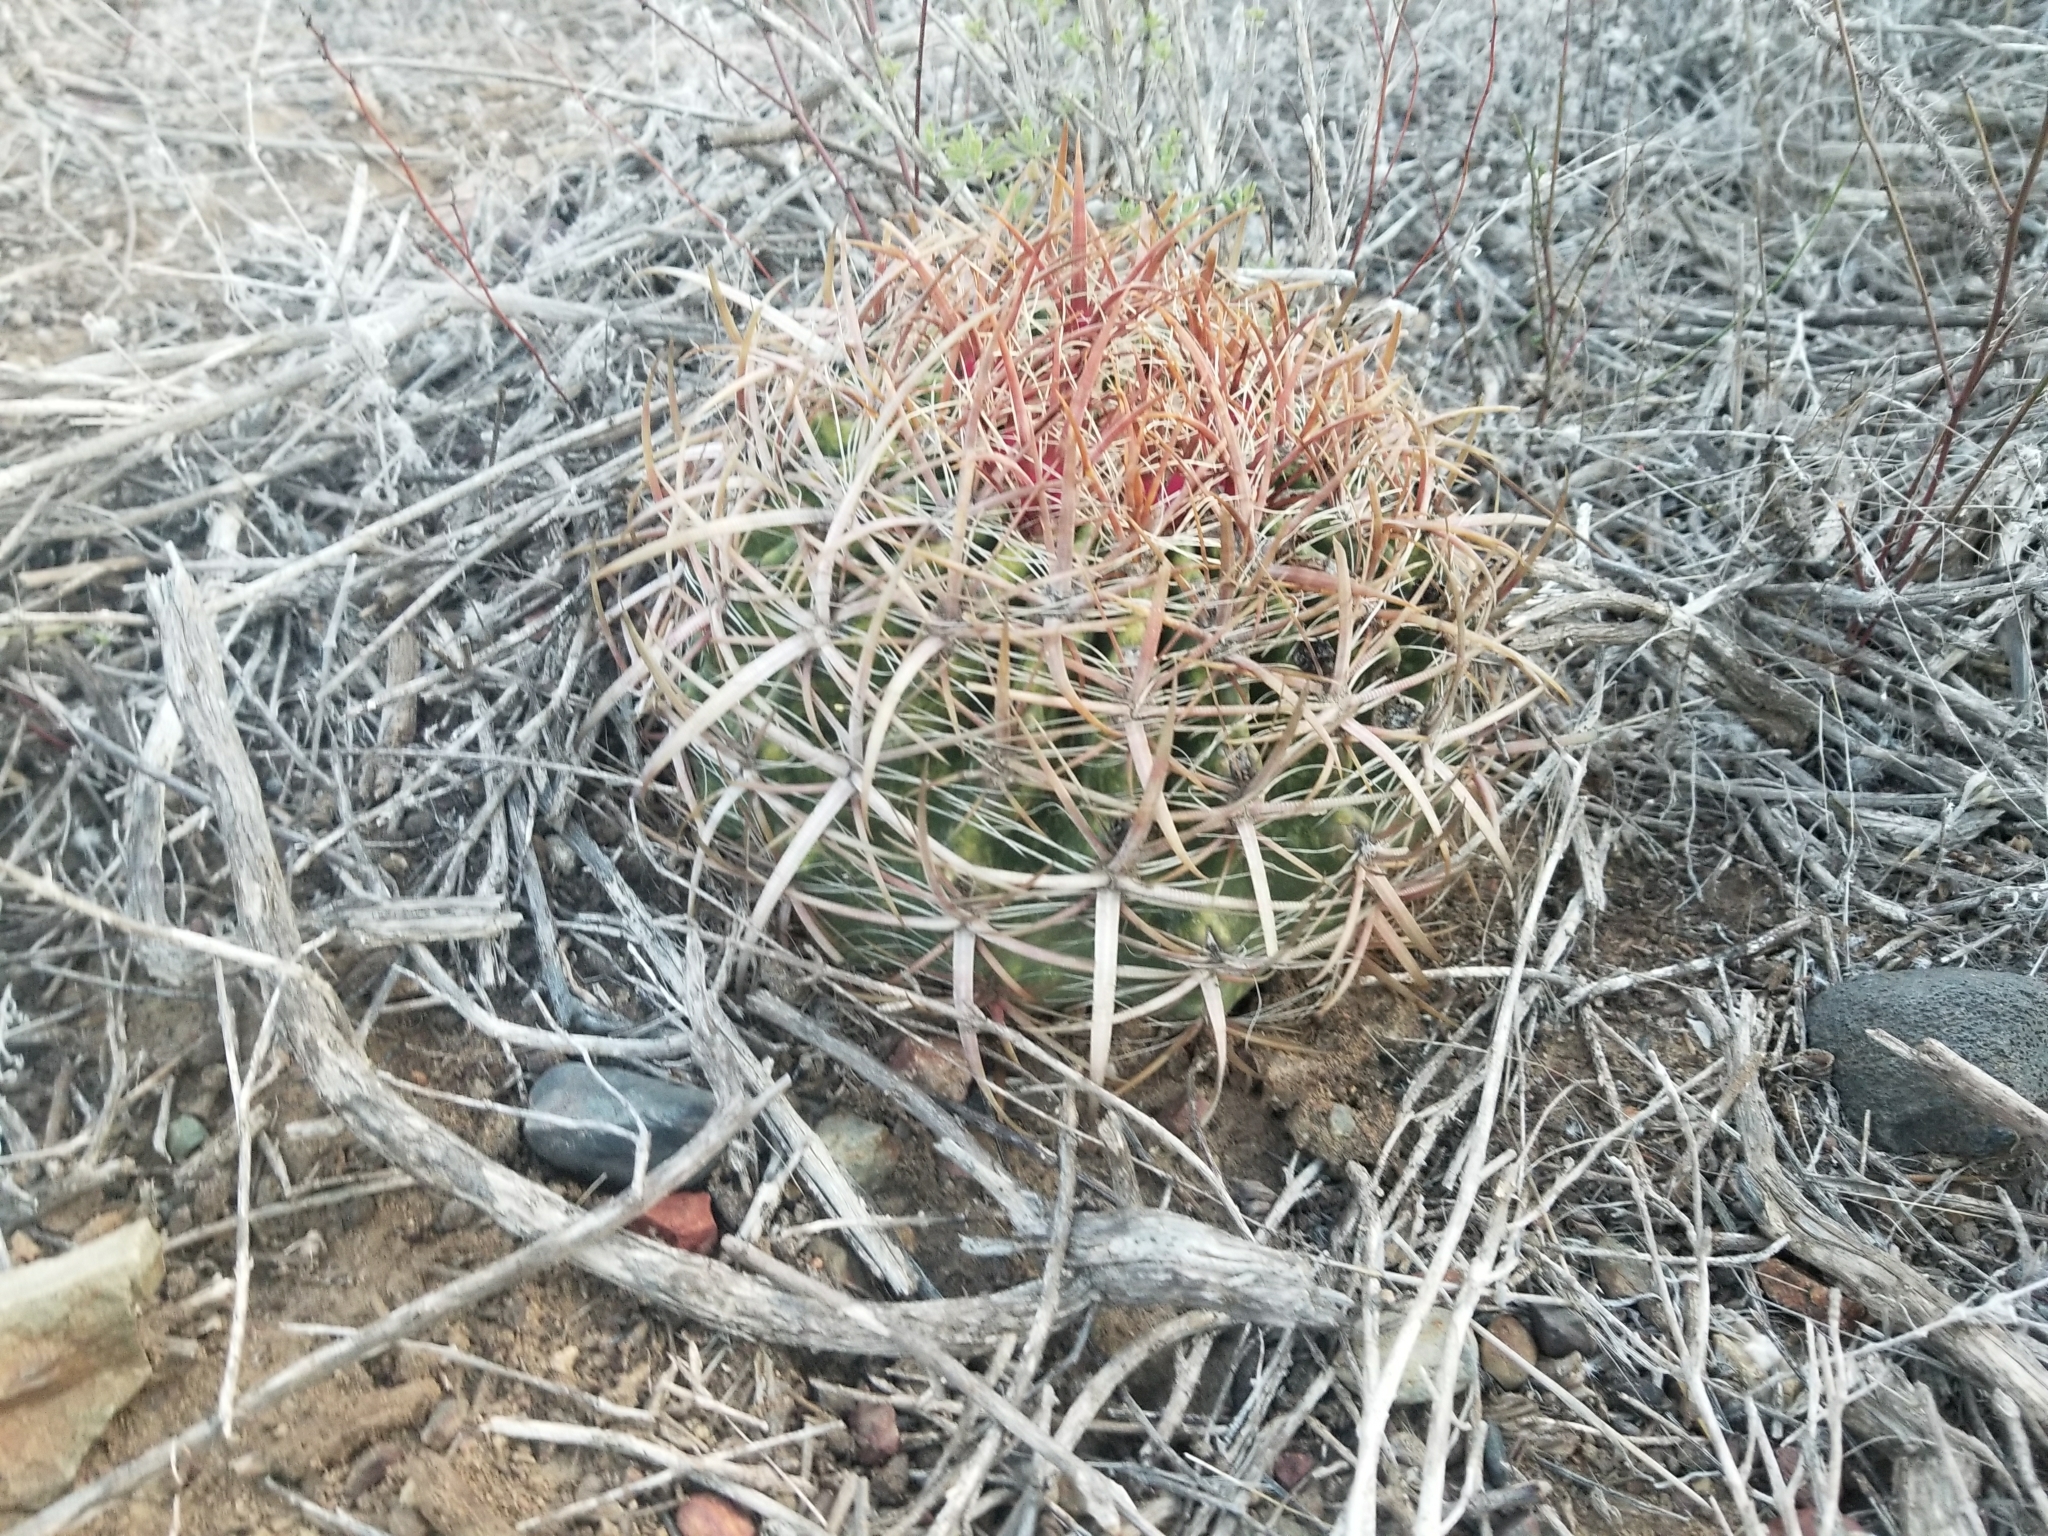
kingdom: Plantae
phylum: Tracheophyta
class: Magnoliopsida
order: Caryophyllales
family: Cactaceae
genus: Ferocactus
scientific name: Ferocactus viridescens
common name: San diego barrel cactus
